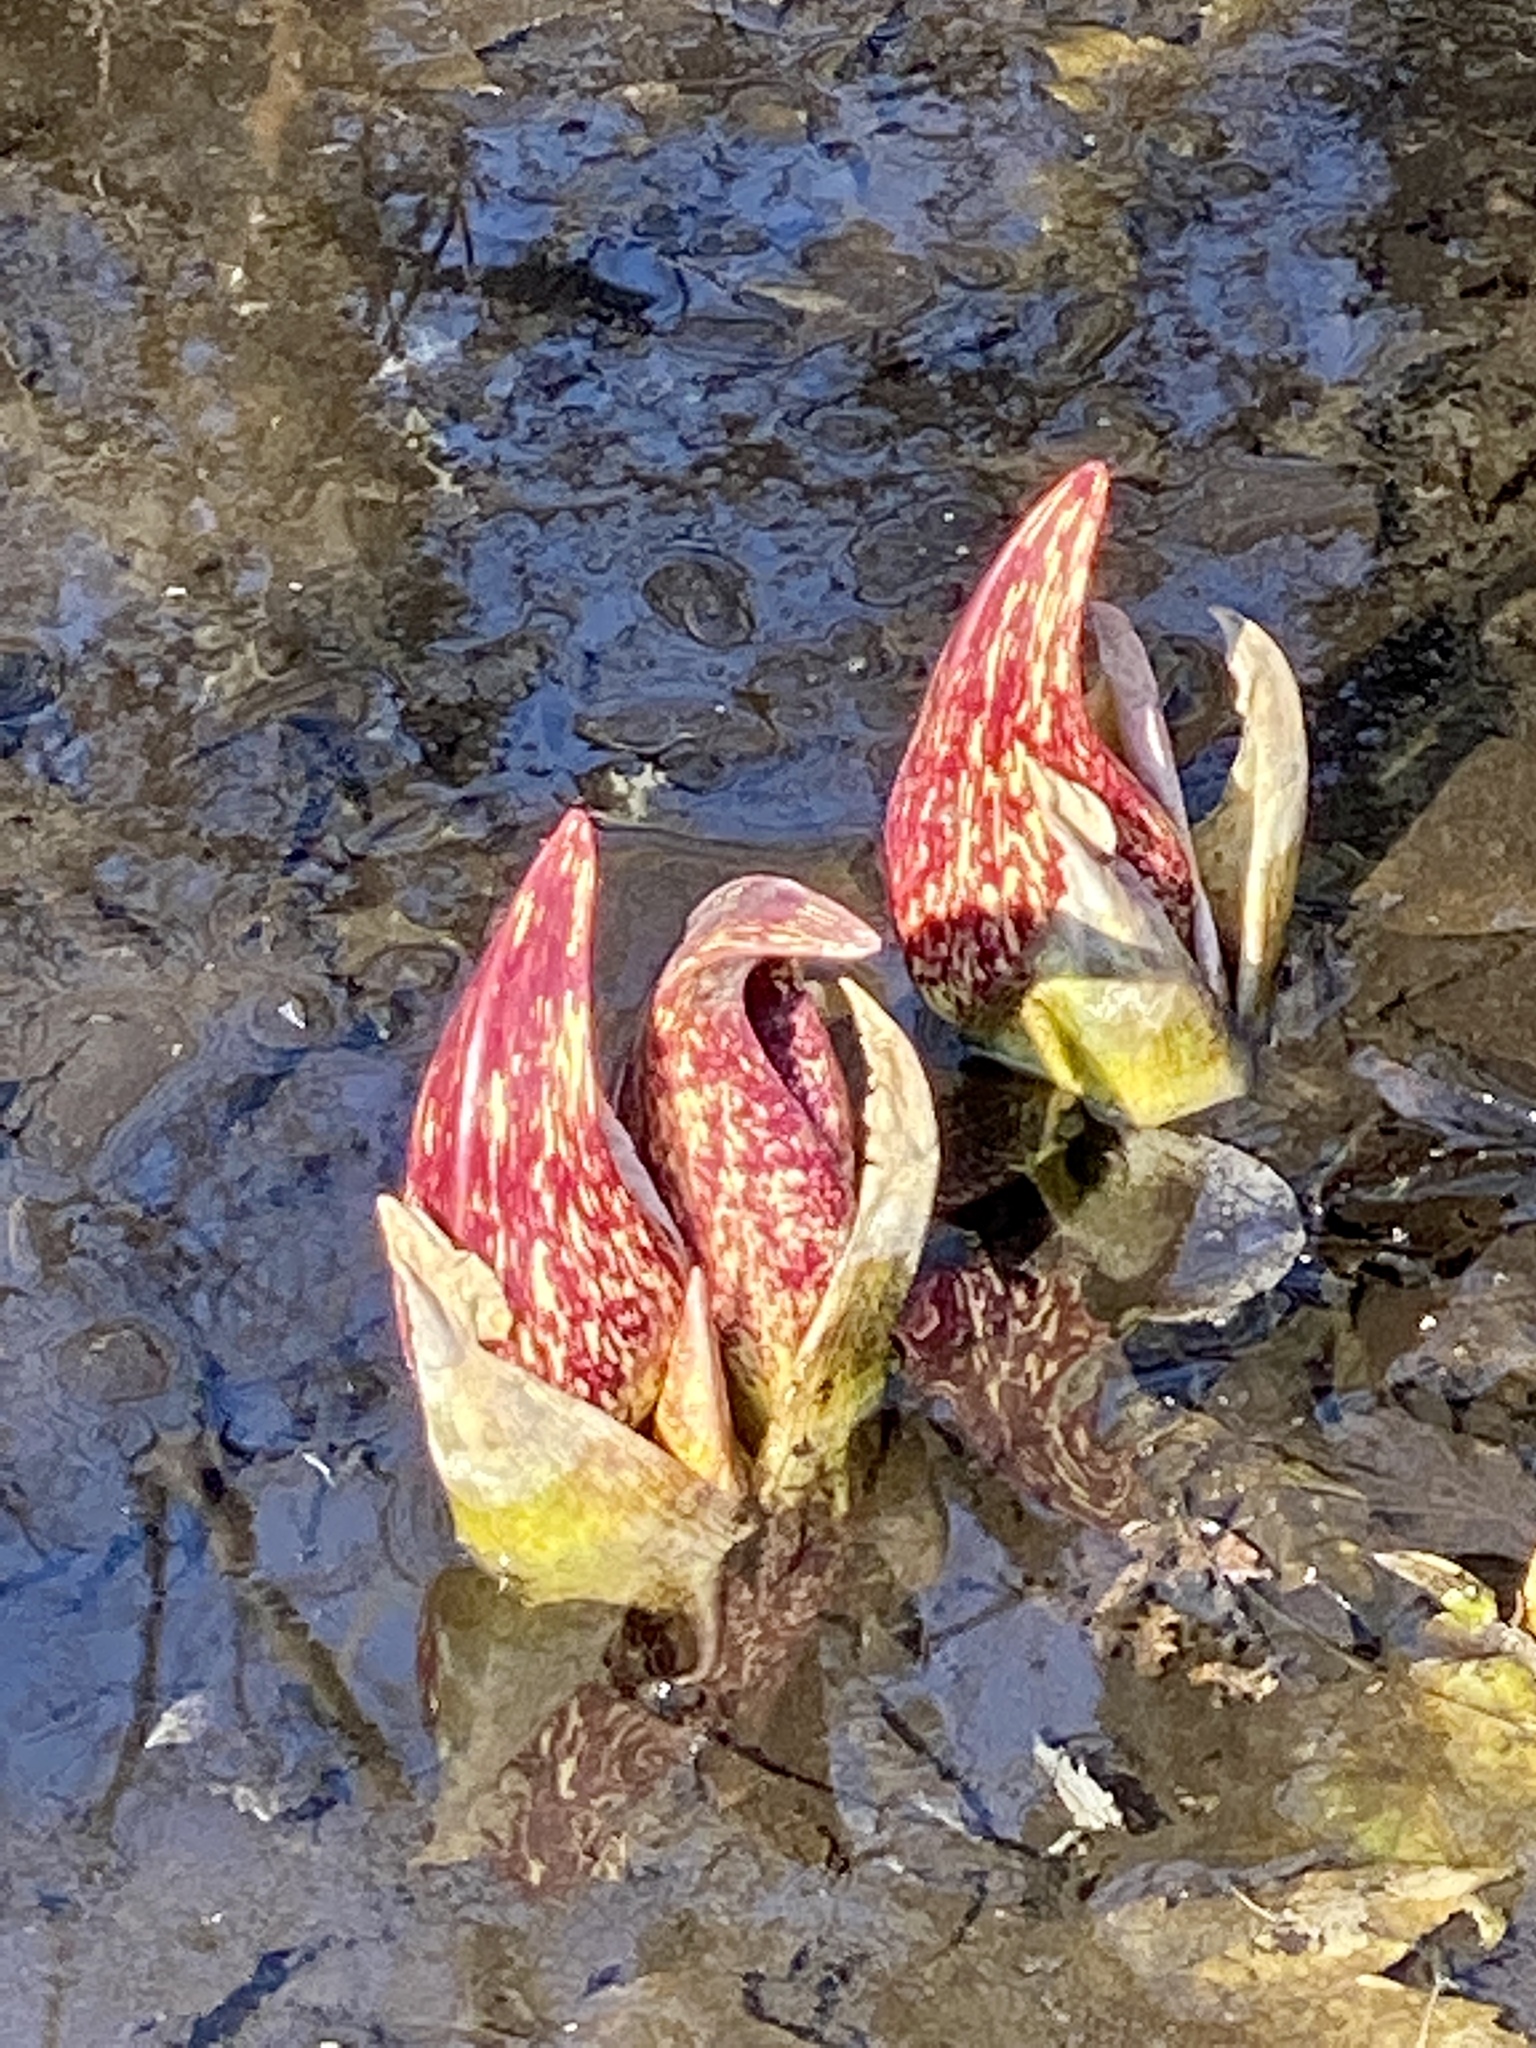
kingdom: Plantae
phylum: Tracheophyta
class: Liliopsida
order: Alismatales
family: Araceae
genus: Symplocarpus
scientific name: Symplocarpus foetidus
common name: Eastern skunk cabbage
